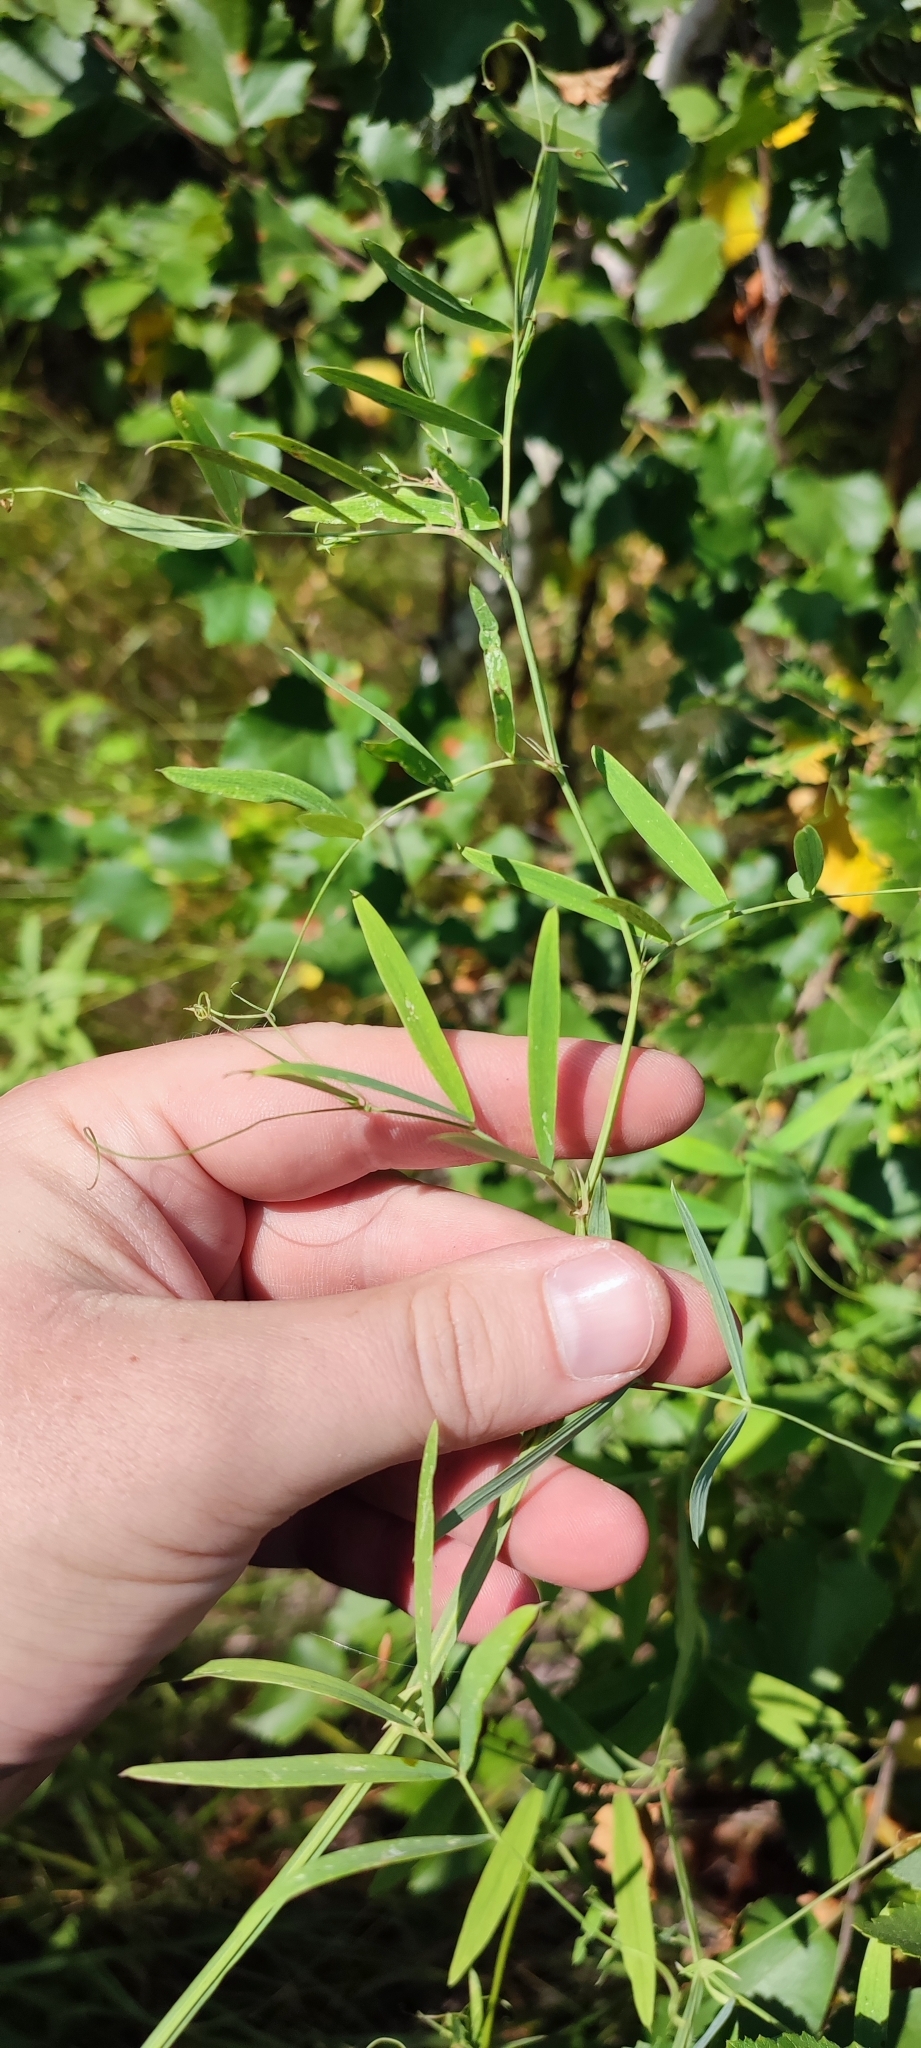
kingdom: Plantae
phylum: Tracheophyta
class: Magnoliopsida
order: Fabales
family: Fabaceae
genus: Lathyrus
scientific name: Lathyrus palustris
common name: Marsh pea
